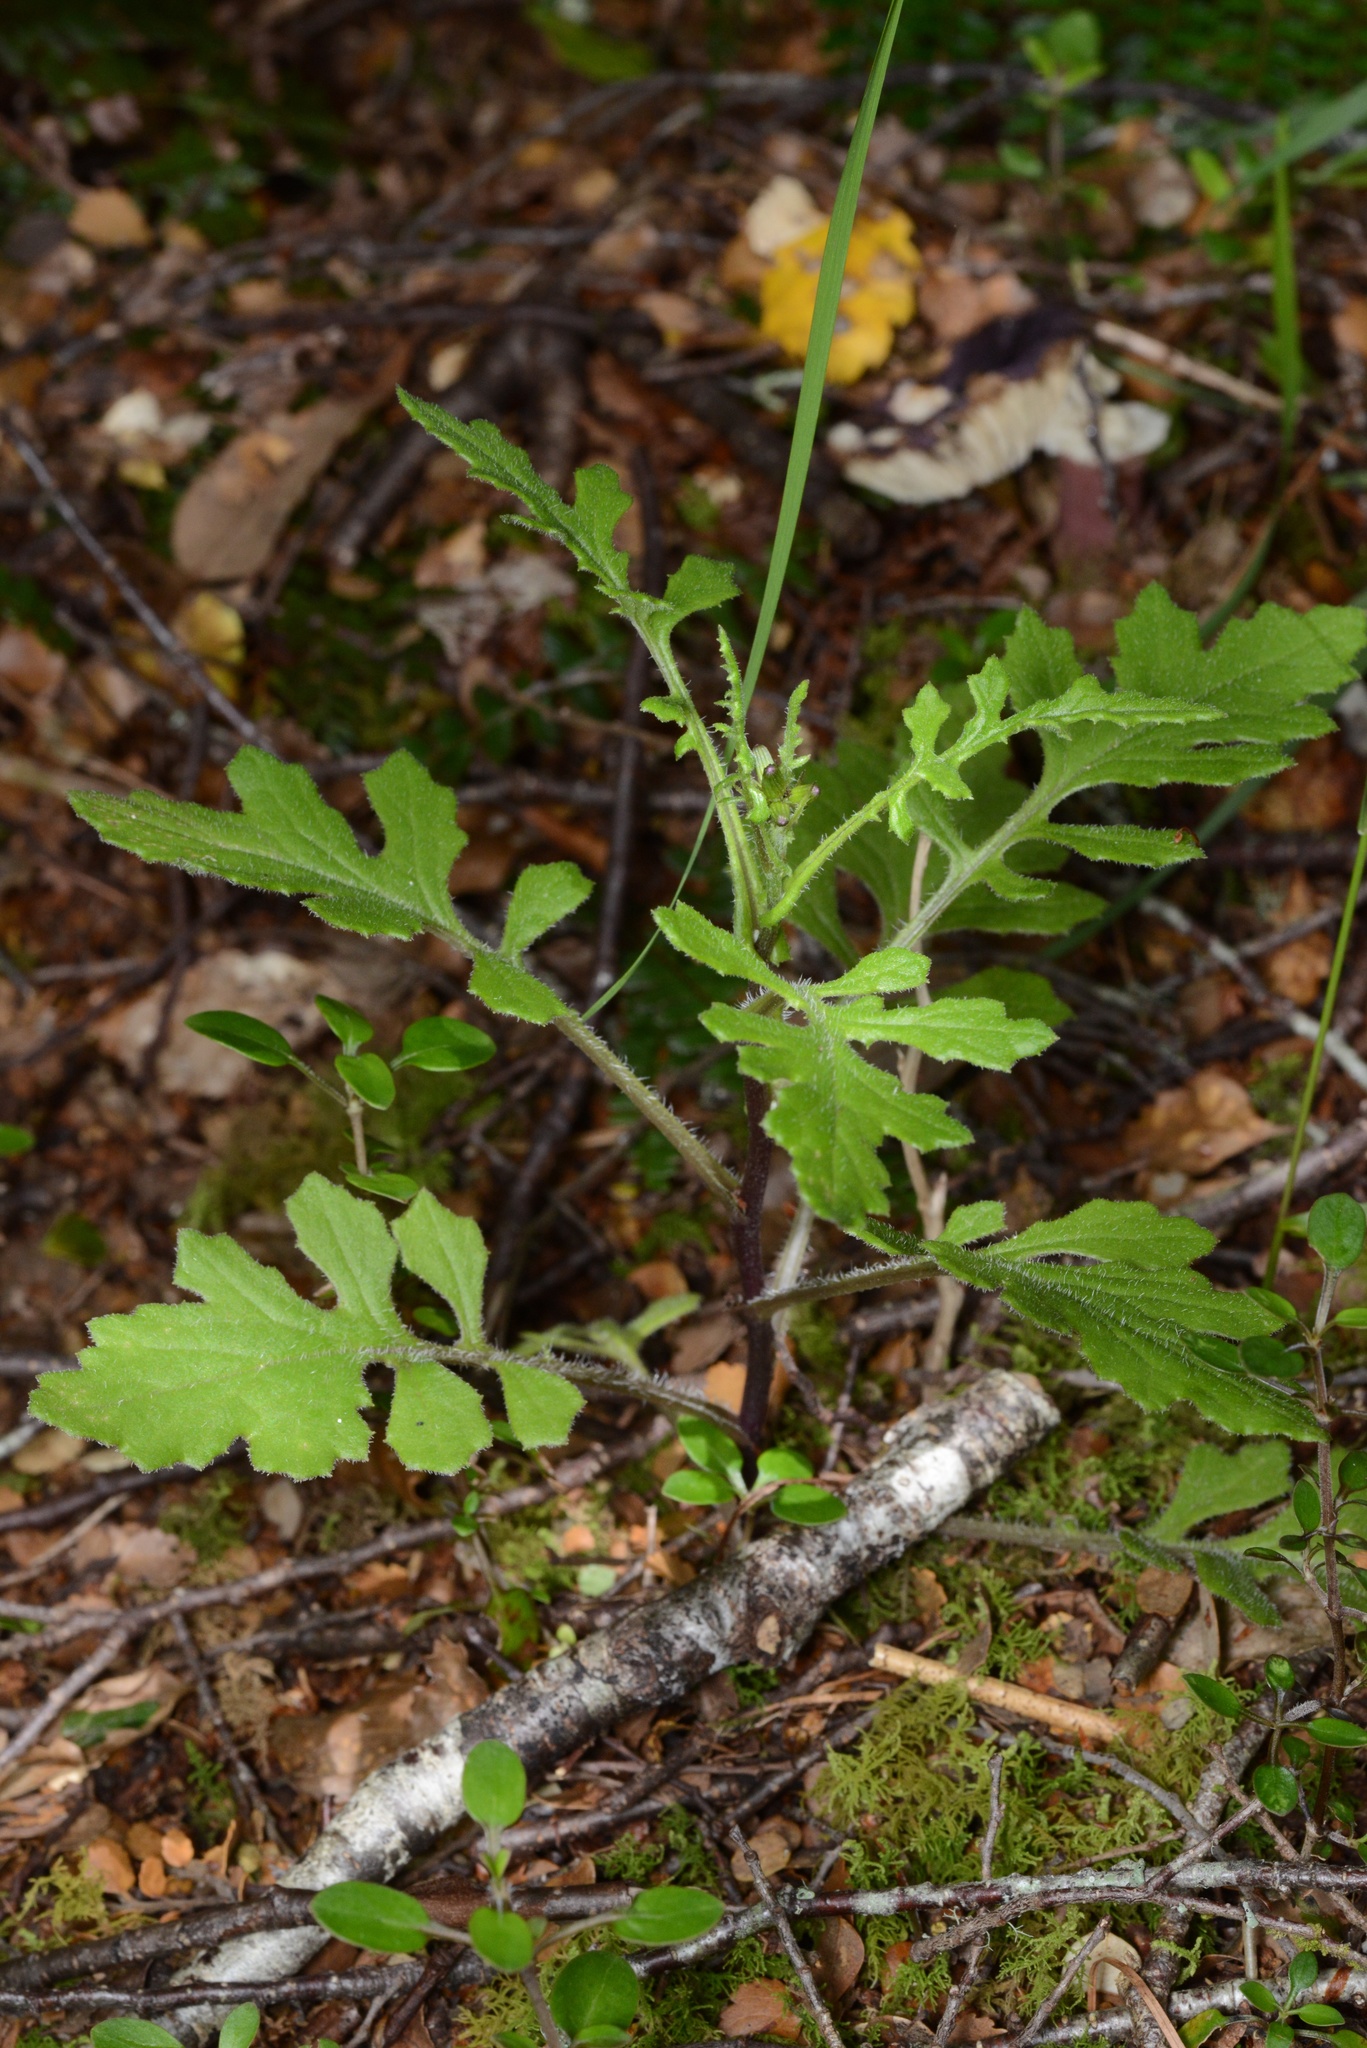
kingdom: Plantae
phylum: Tracheophyta
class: Magnoliopsida
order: Asterales
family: Asteraceae
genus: Senecio
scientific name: Senecio wairauensis
